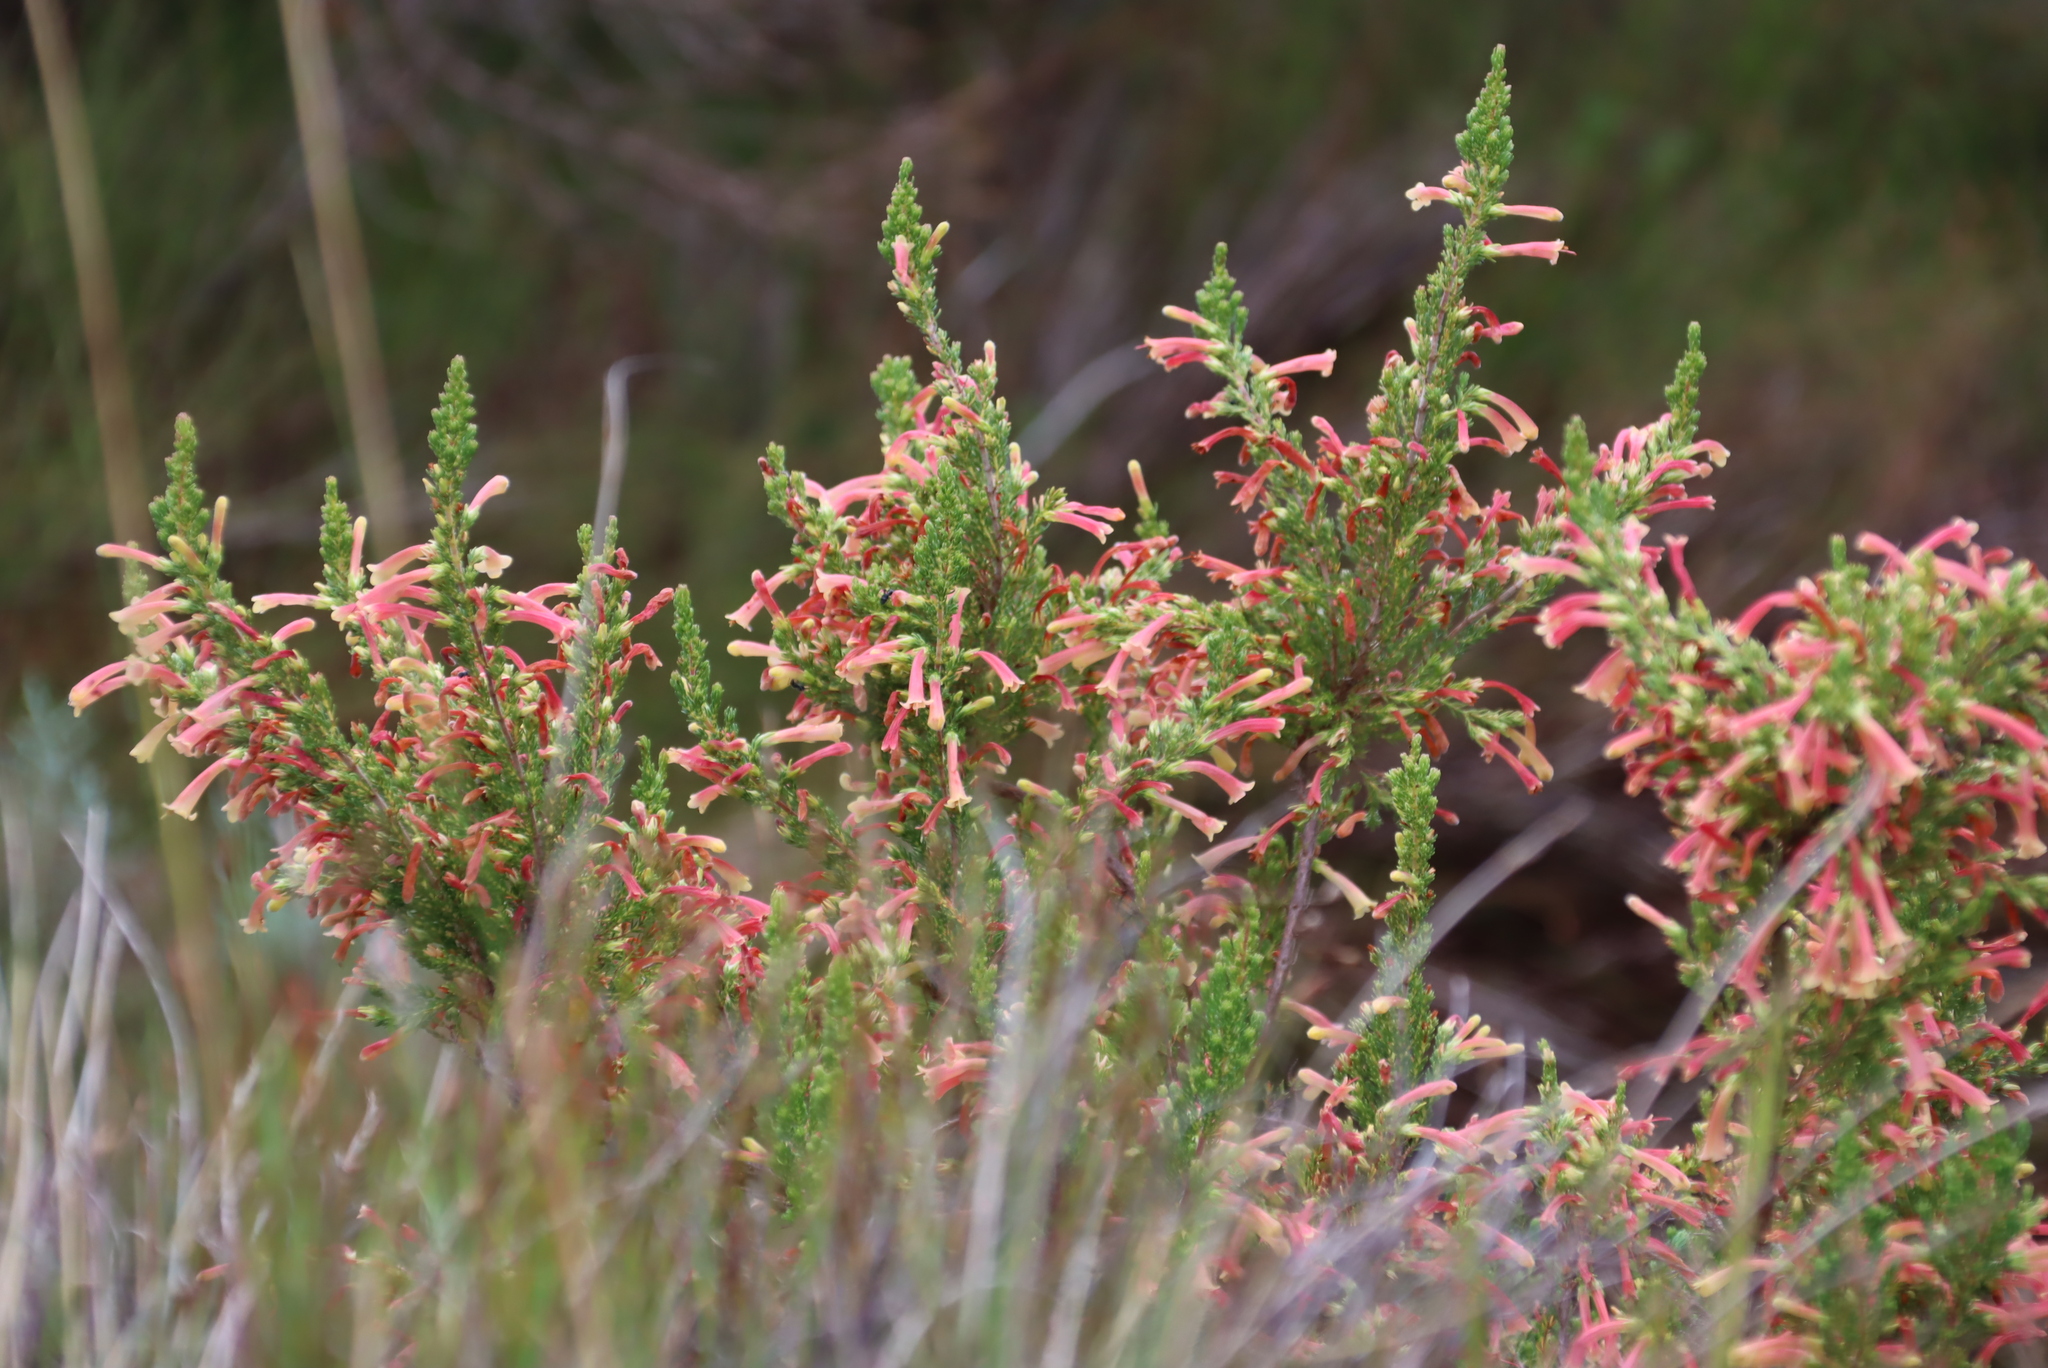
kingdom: Plantae
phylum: Tracheophyta
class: Magnoliopsida
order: Ericales
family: Ericaceae
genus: Erica
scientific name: Erica versicolor
